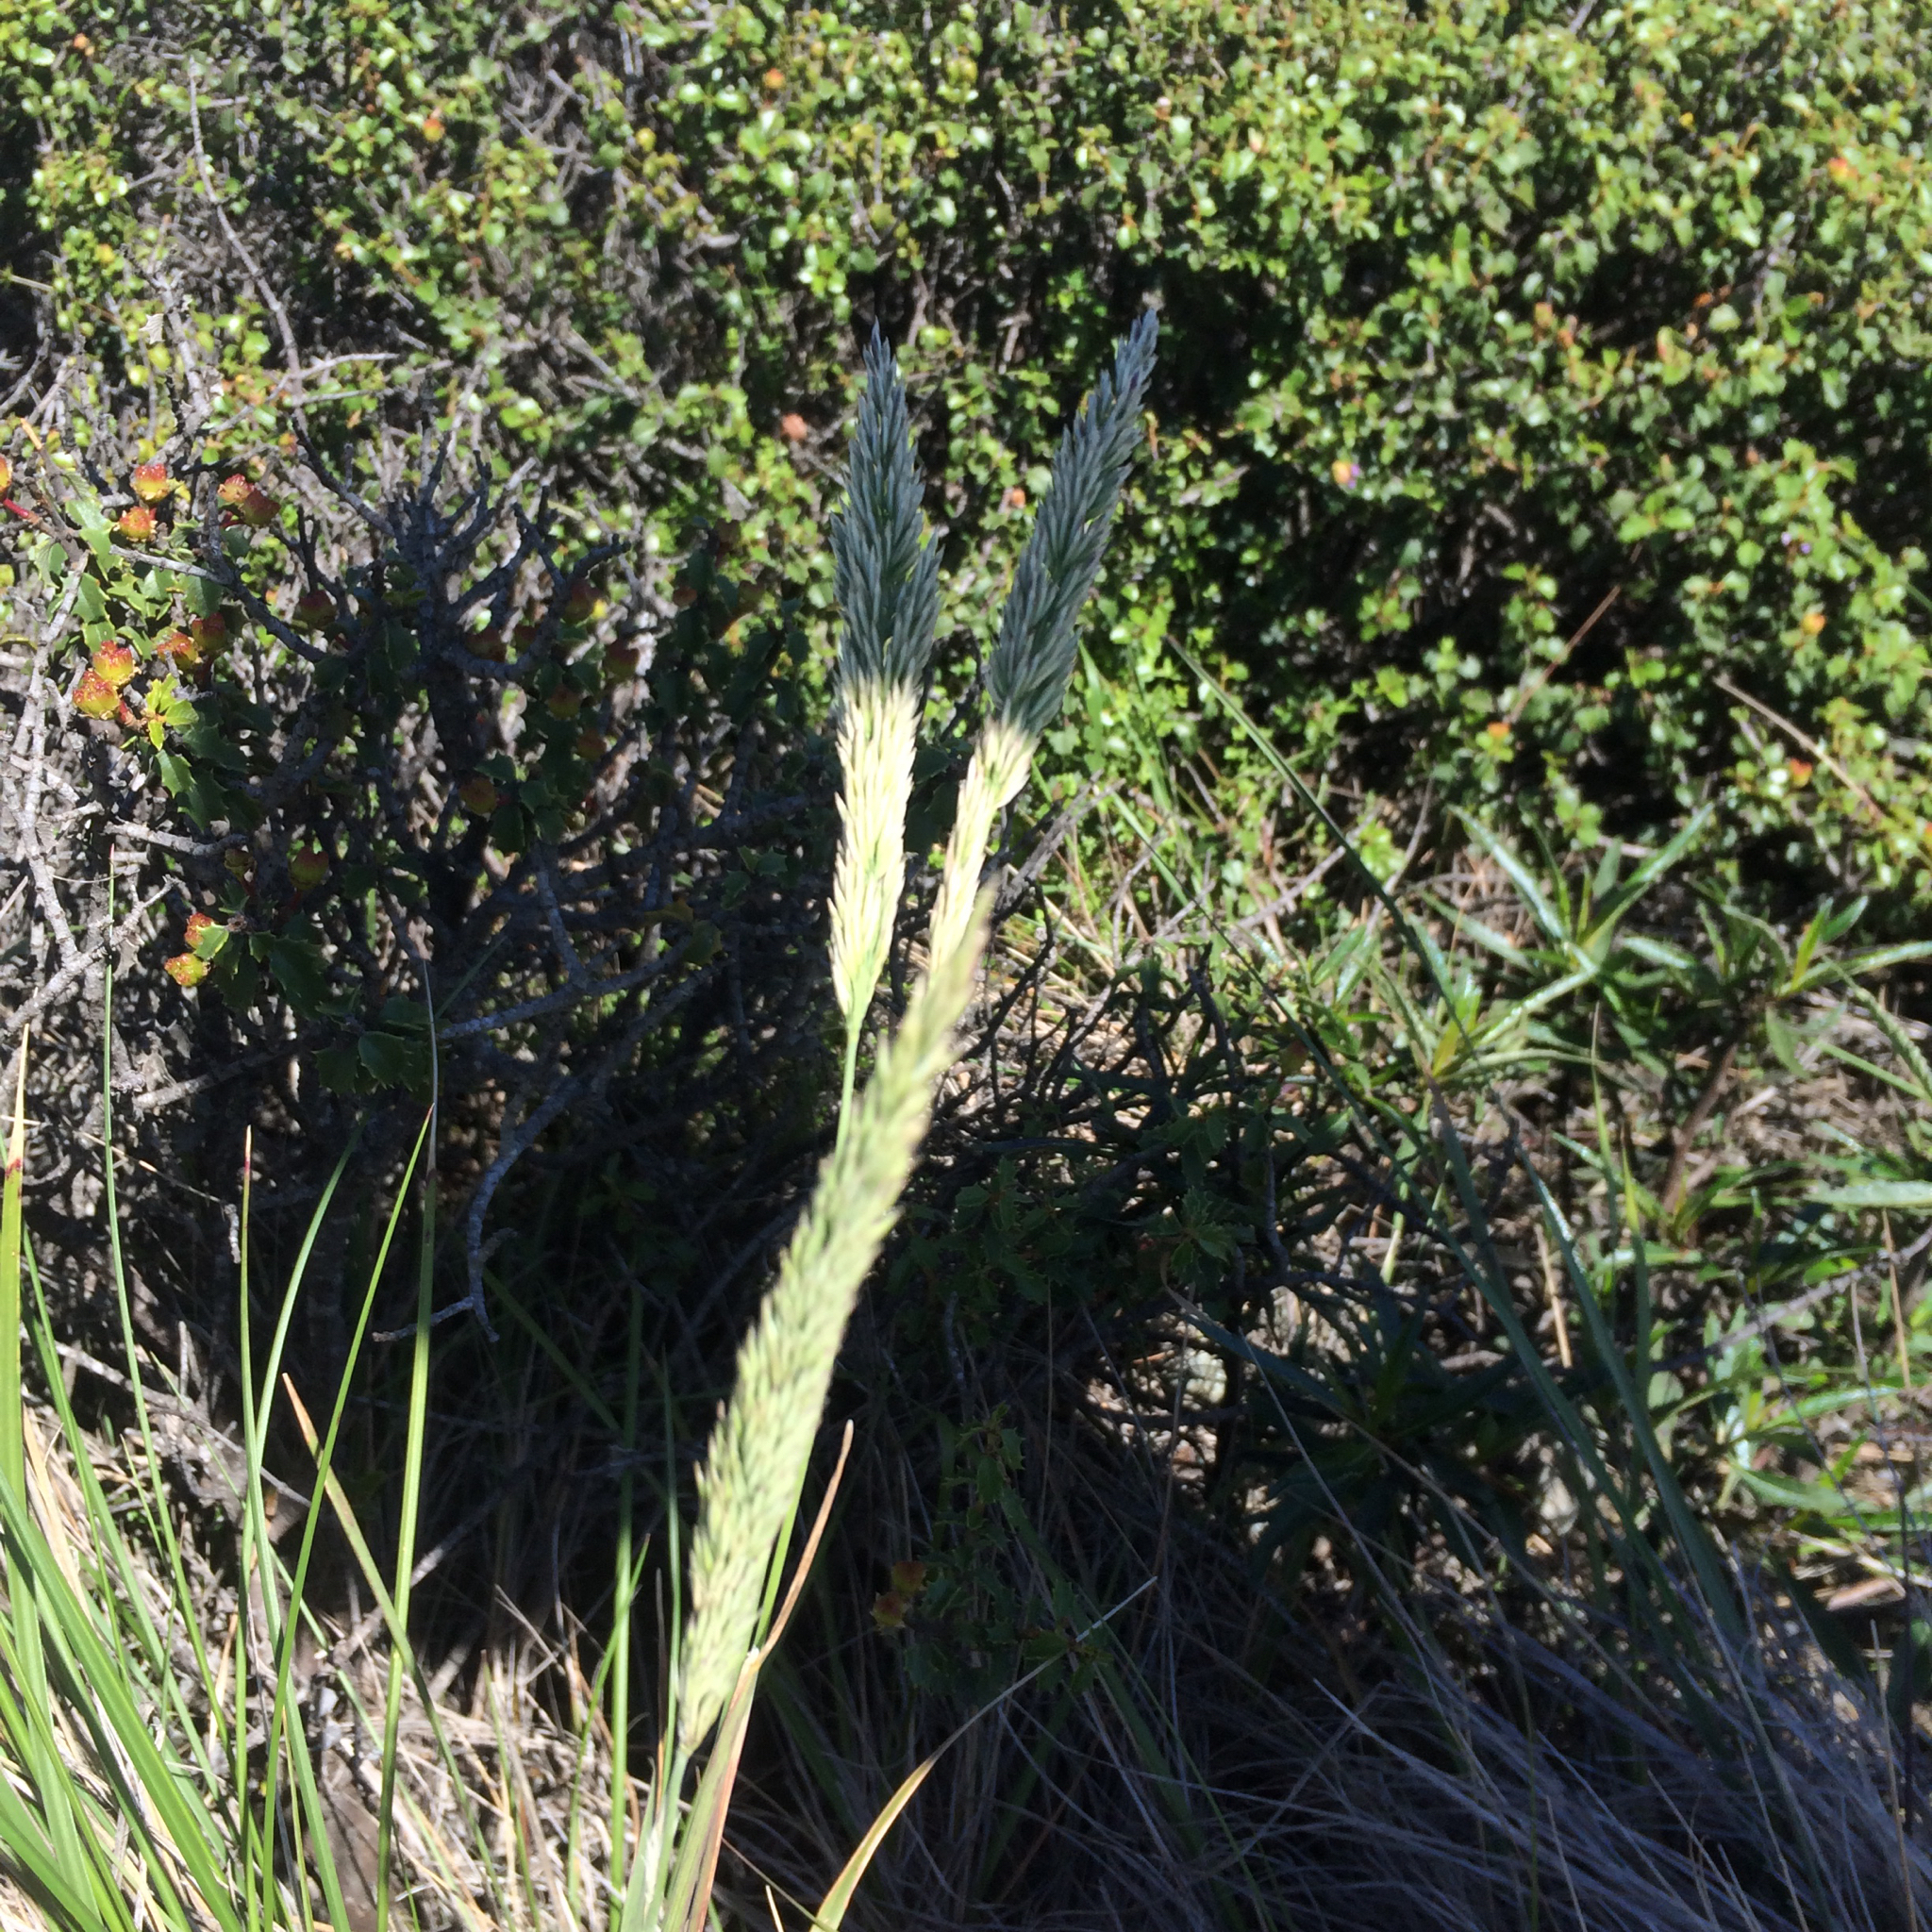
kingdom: Plantae
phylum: Tracheophyta
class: Liliopsida
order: Poales
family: Poaceae
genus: Calamagrostis
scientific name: Calamagrostis ophitidis
